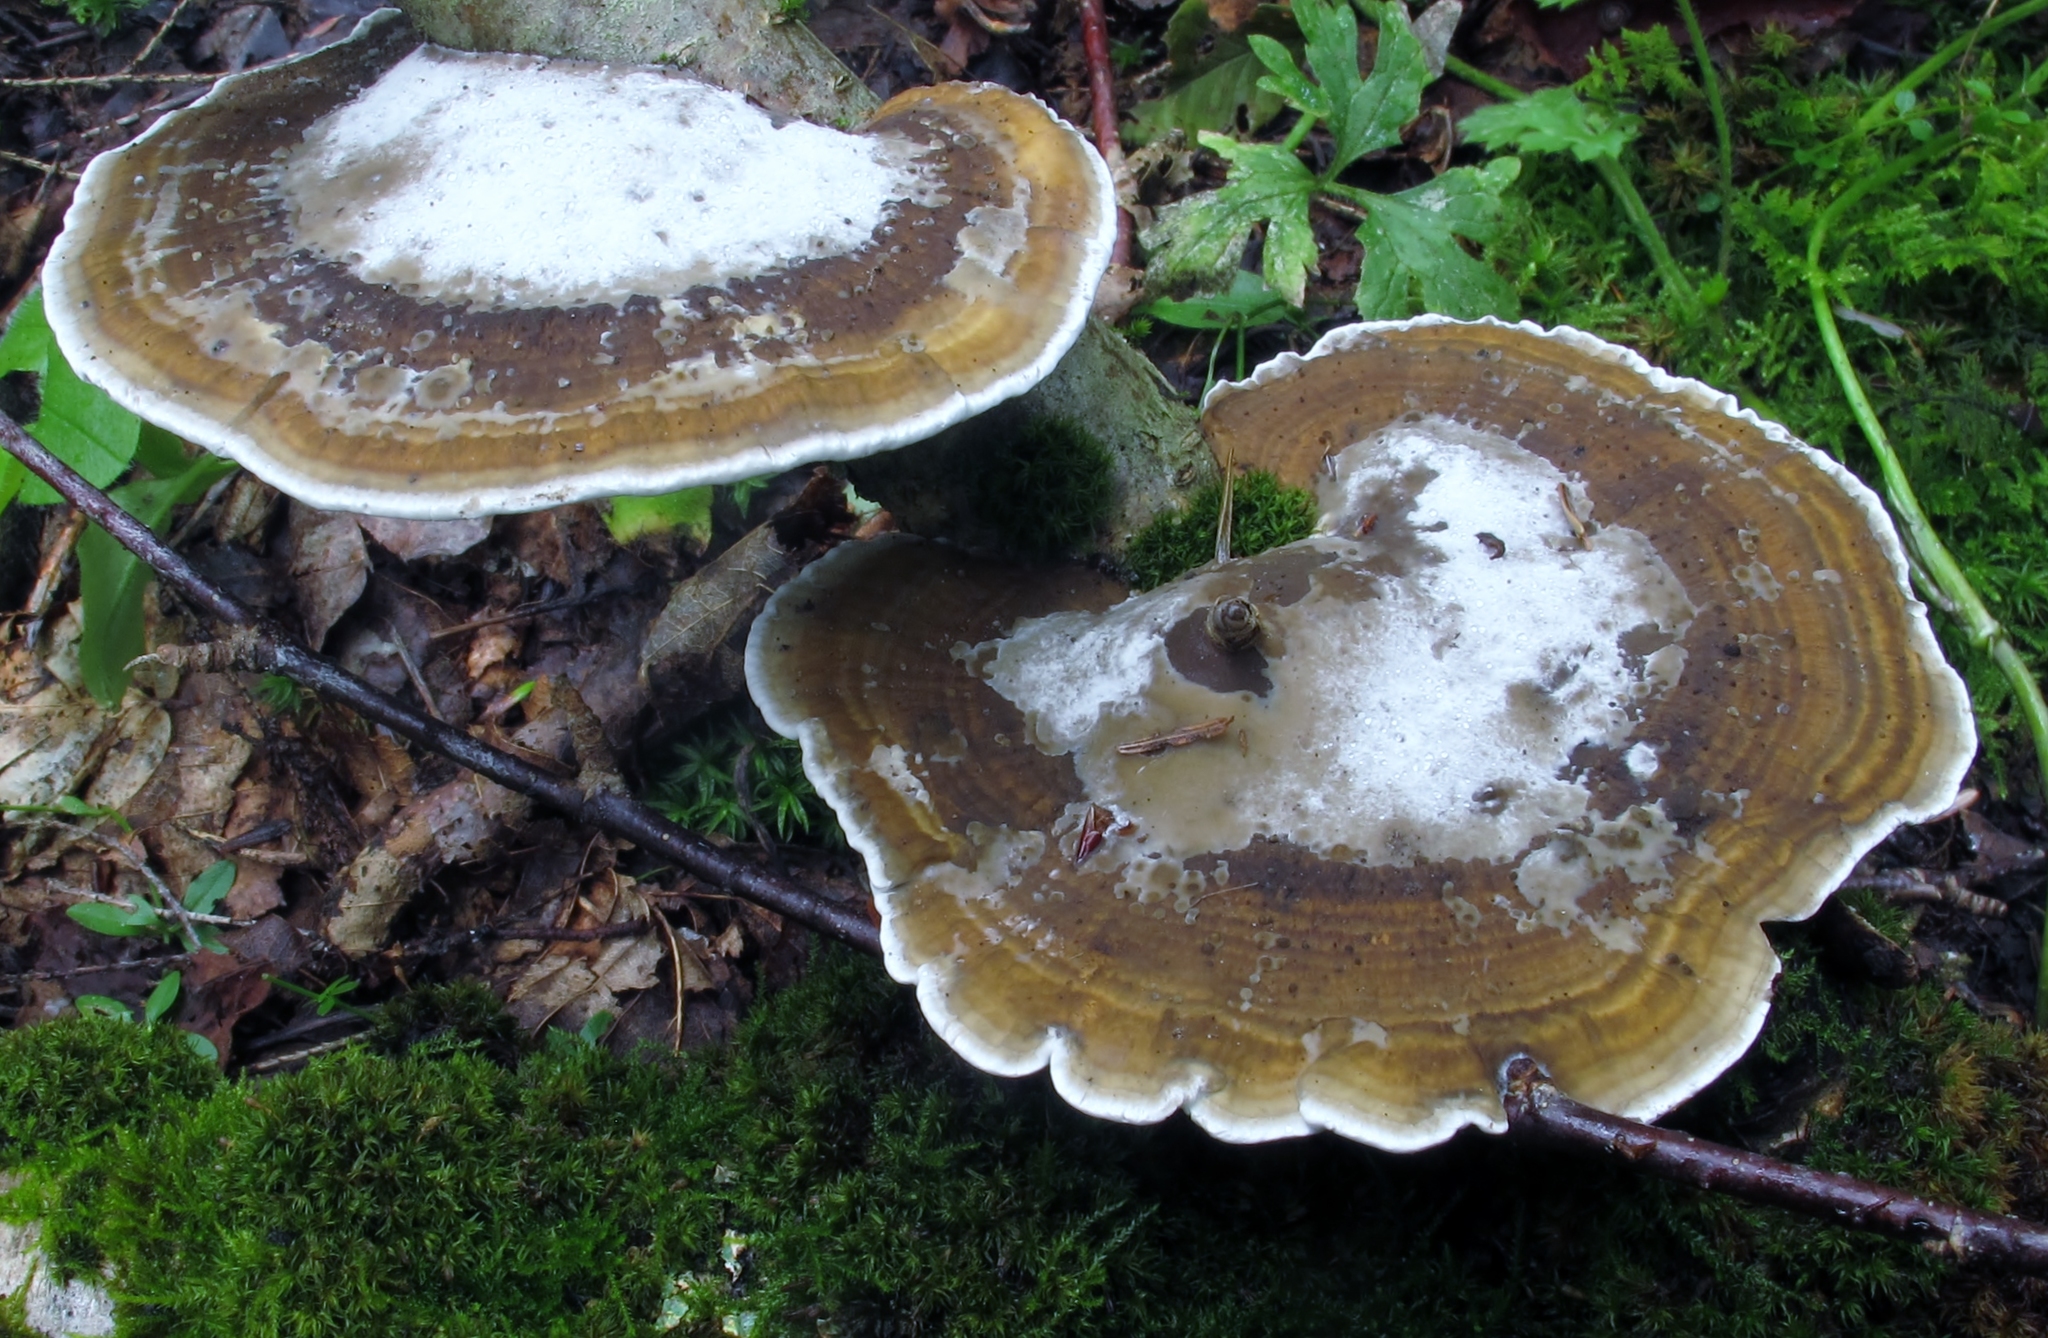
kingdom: Fungi
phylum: Basidiomycota
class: Agaricomycetes
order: Polyporales
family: Polyporaceae
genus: Daedaleopsis
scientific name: Daedaleopsis confragosa
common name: Blushing bracket
